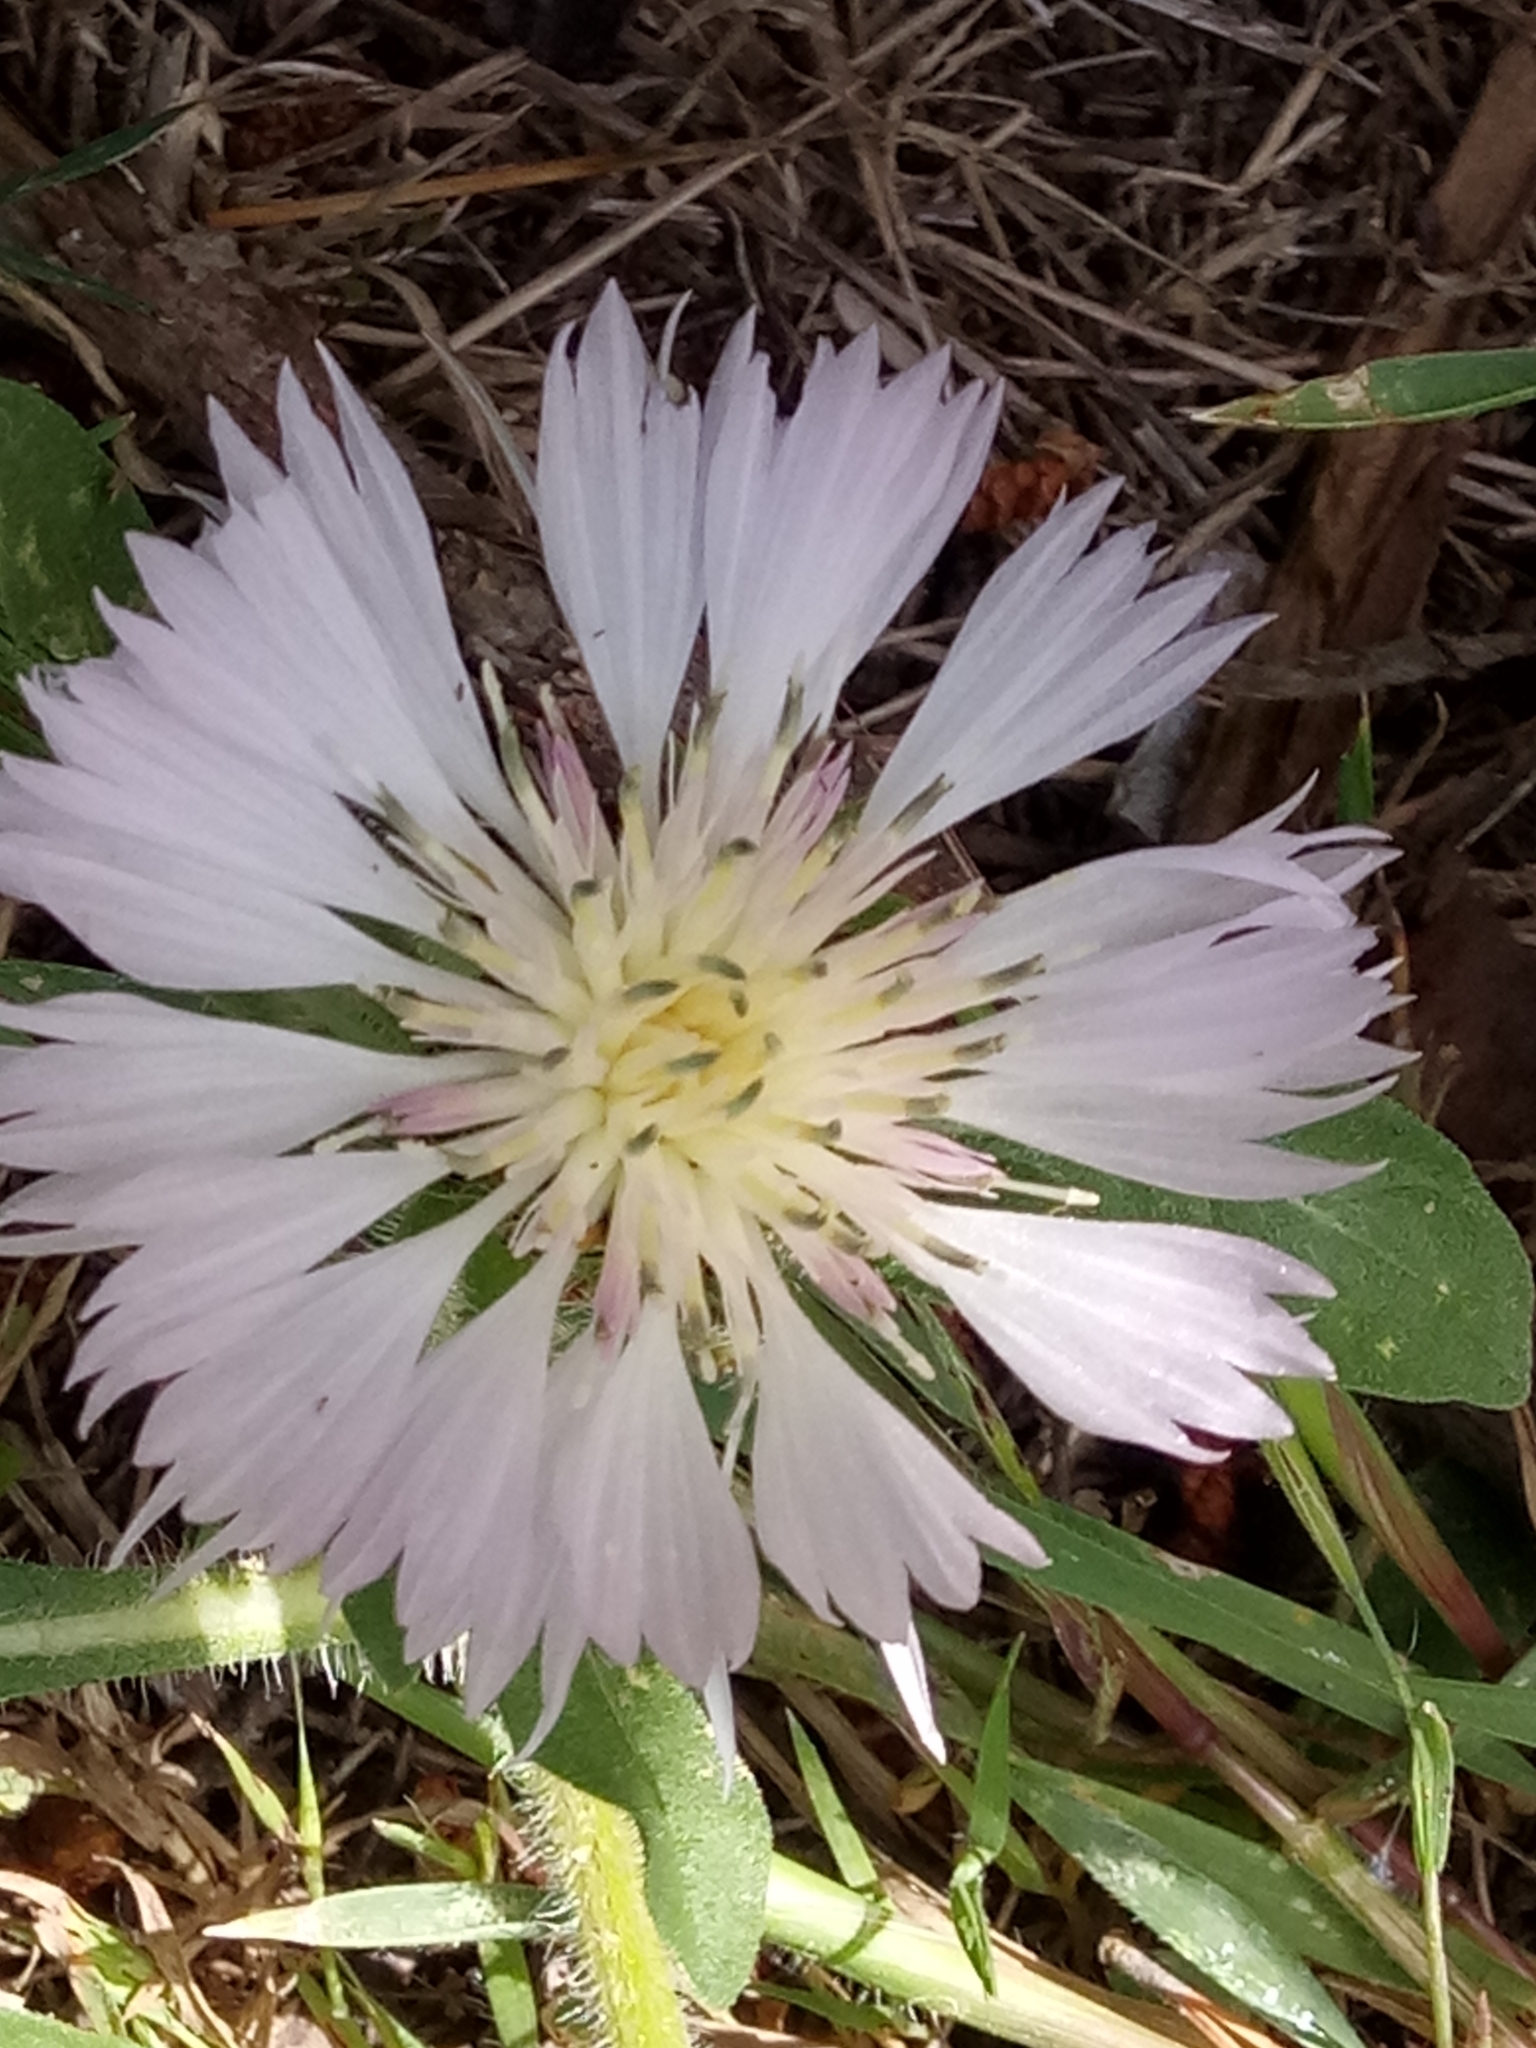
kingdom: Plantae
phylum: Tracheophyta
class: Magnoliopsida
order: Asterales
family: Asteraceae
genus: Centaurea
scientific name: Centaurea pullata
